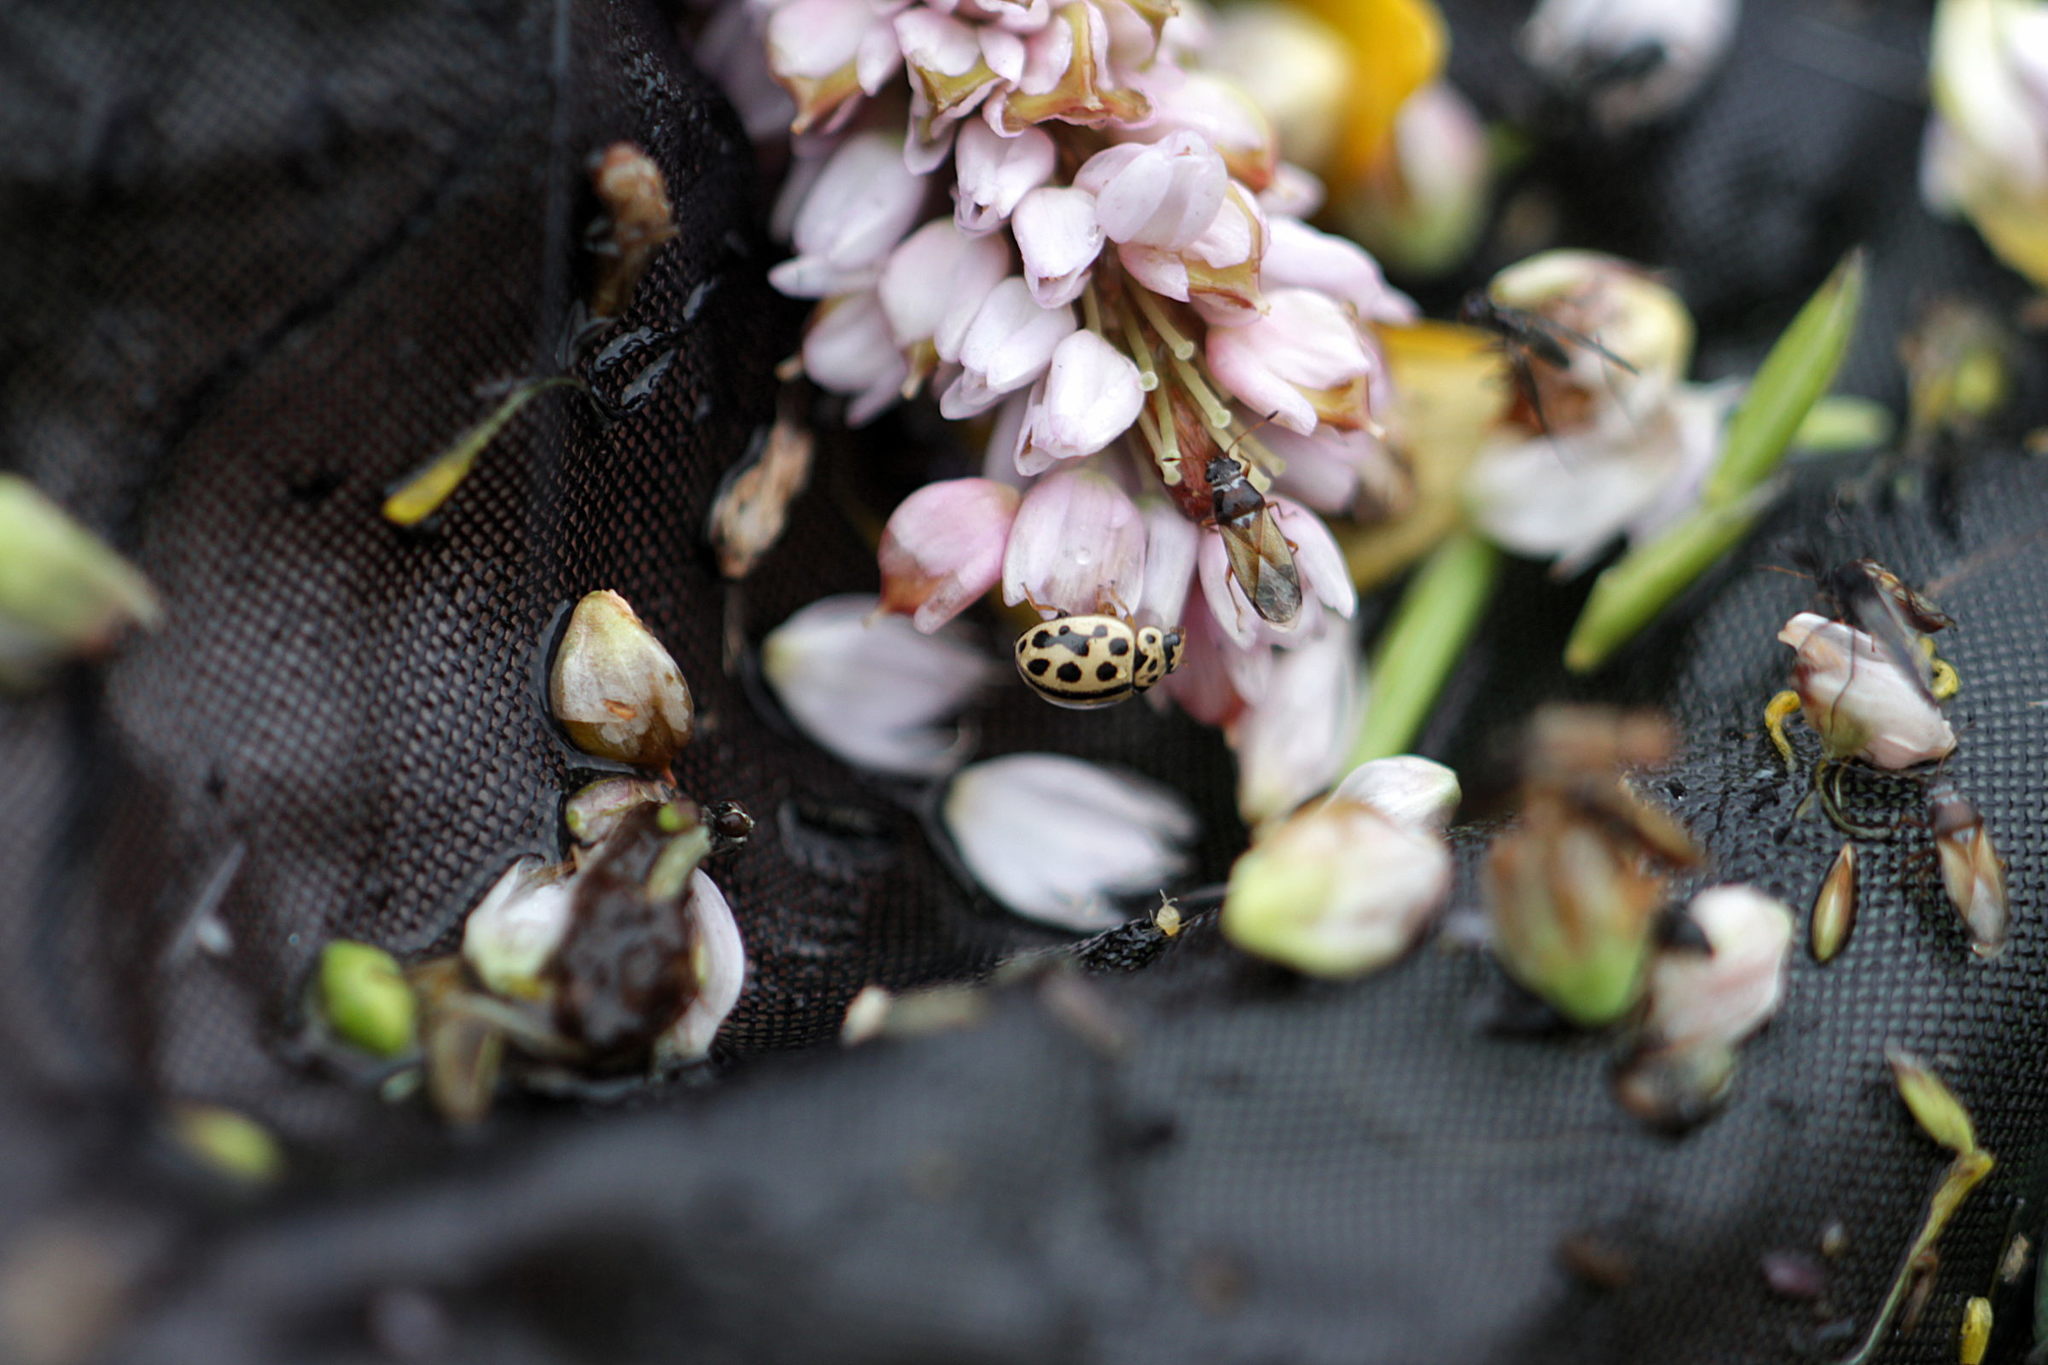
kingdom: Animalia
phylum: Arthropoda
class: Insecta
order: Coleoptera
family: Coccinellidae
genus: Tytthaspis
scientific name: Tytthaspis sedecimpunctata
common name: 16-spot ladybird
